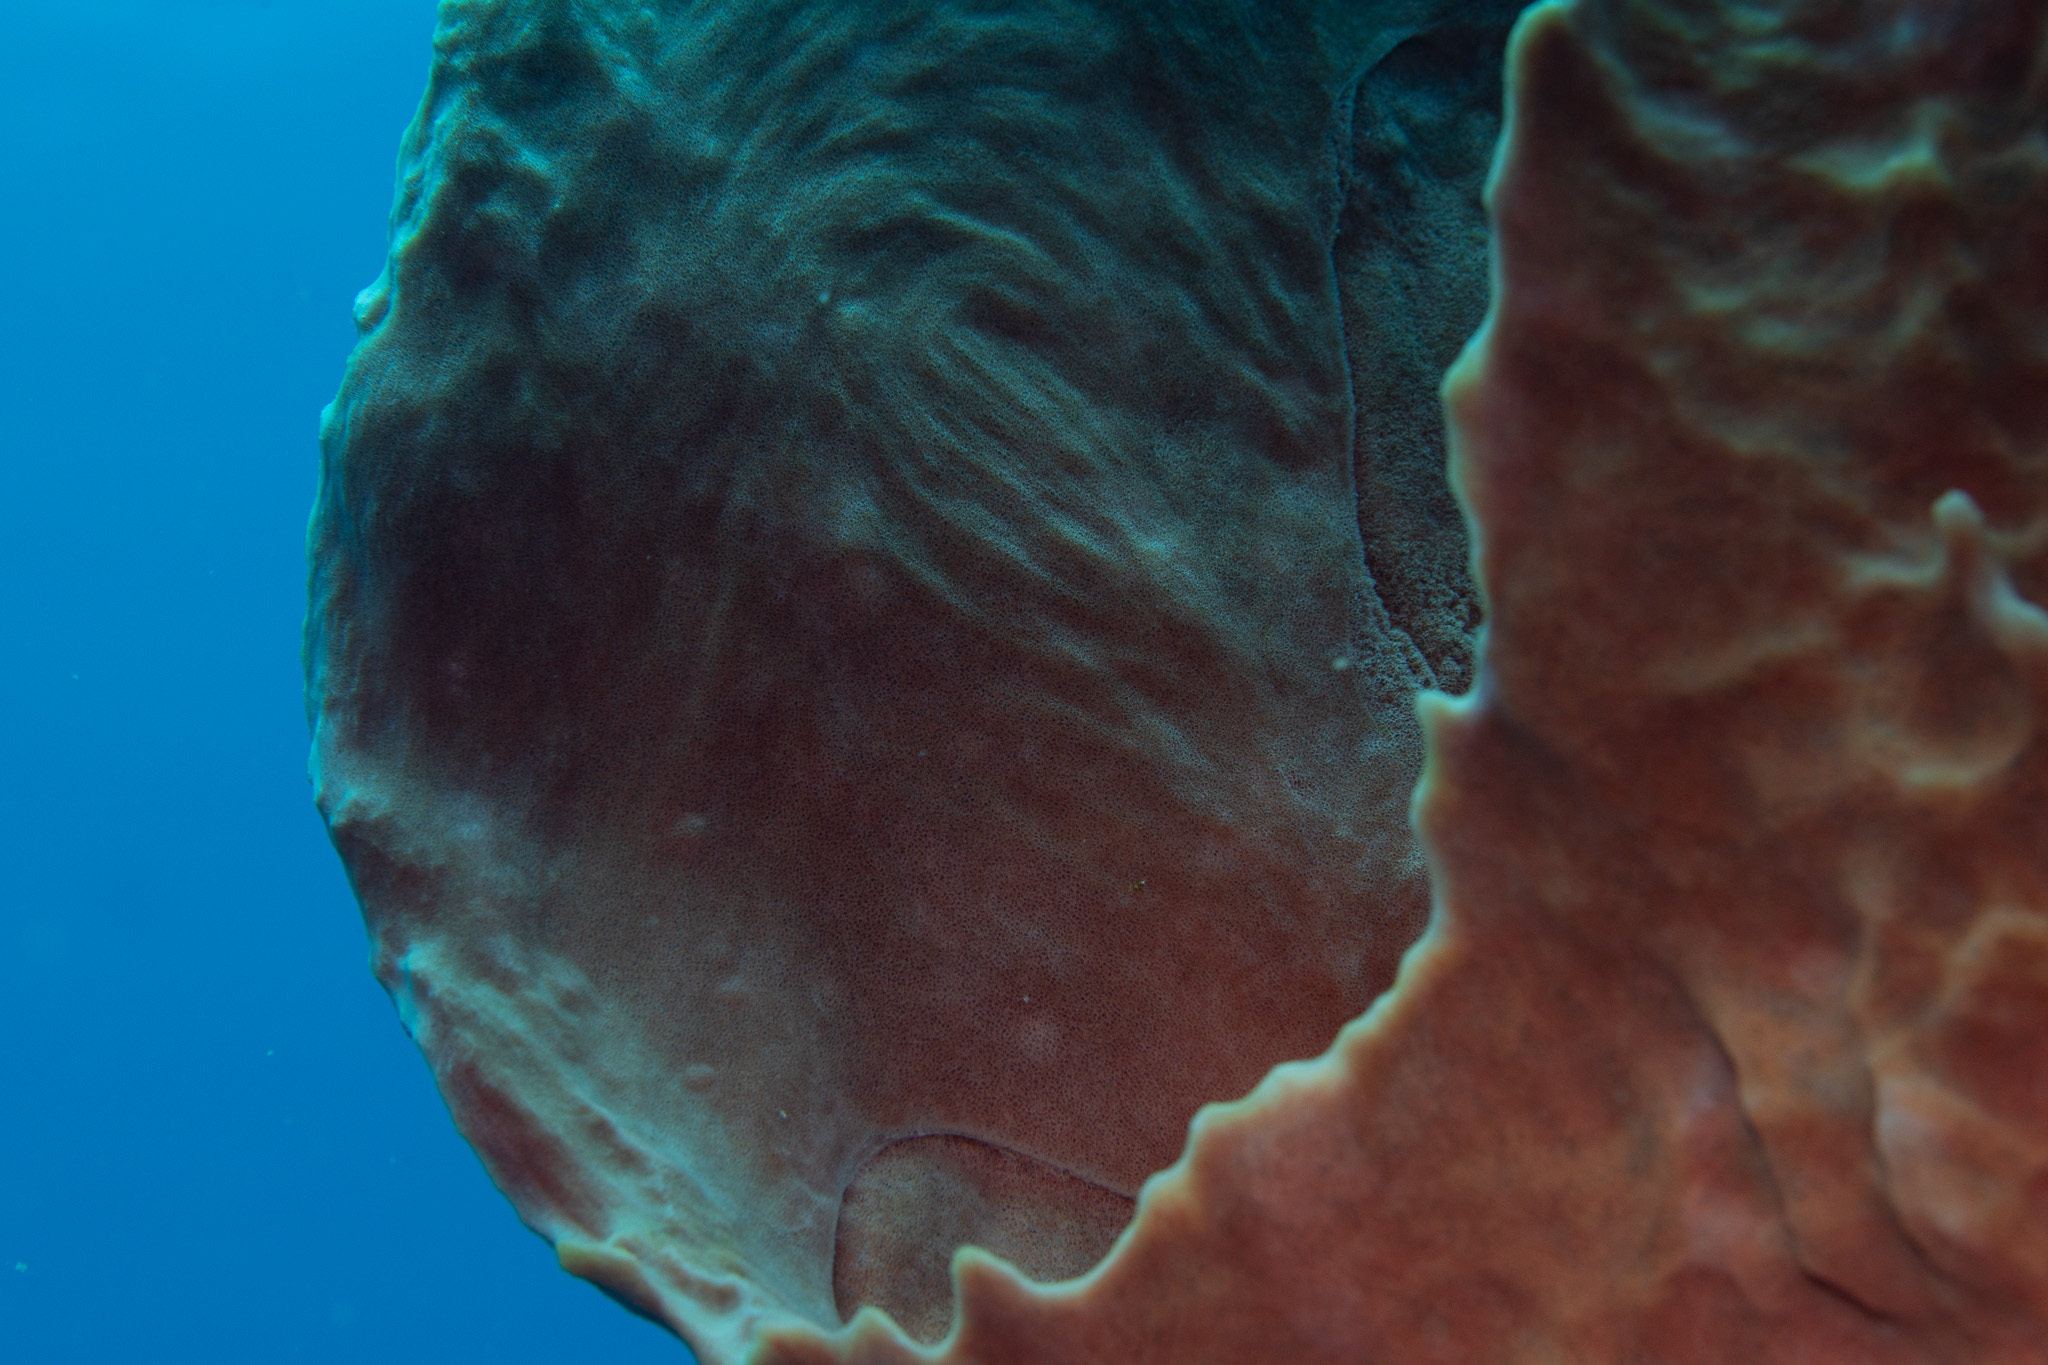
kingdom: Animalia
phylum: Porifera
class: Demospongiae
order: Haplosclerida
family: Petrosiidae
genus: Xestospongia
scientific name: Xestospongia muta
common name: Giant barrel sponge
